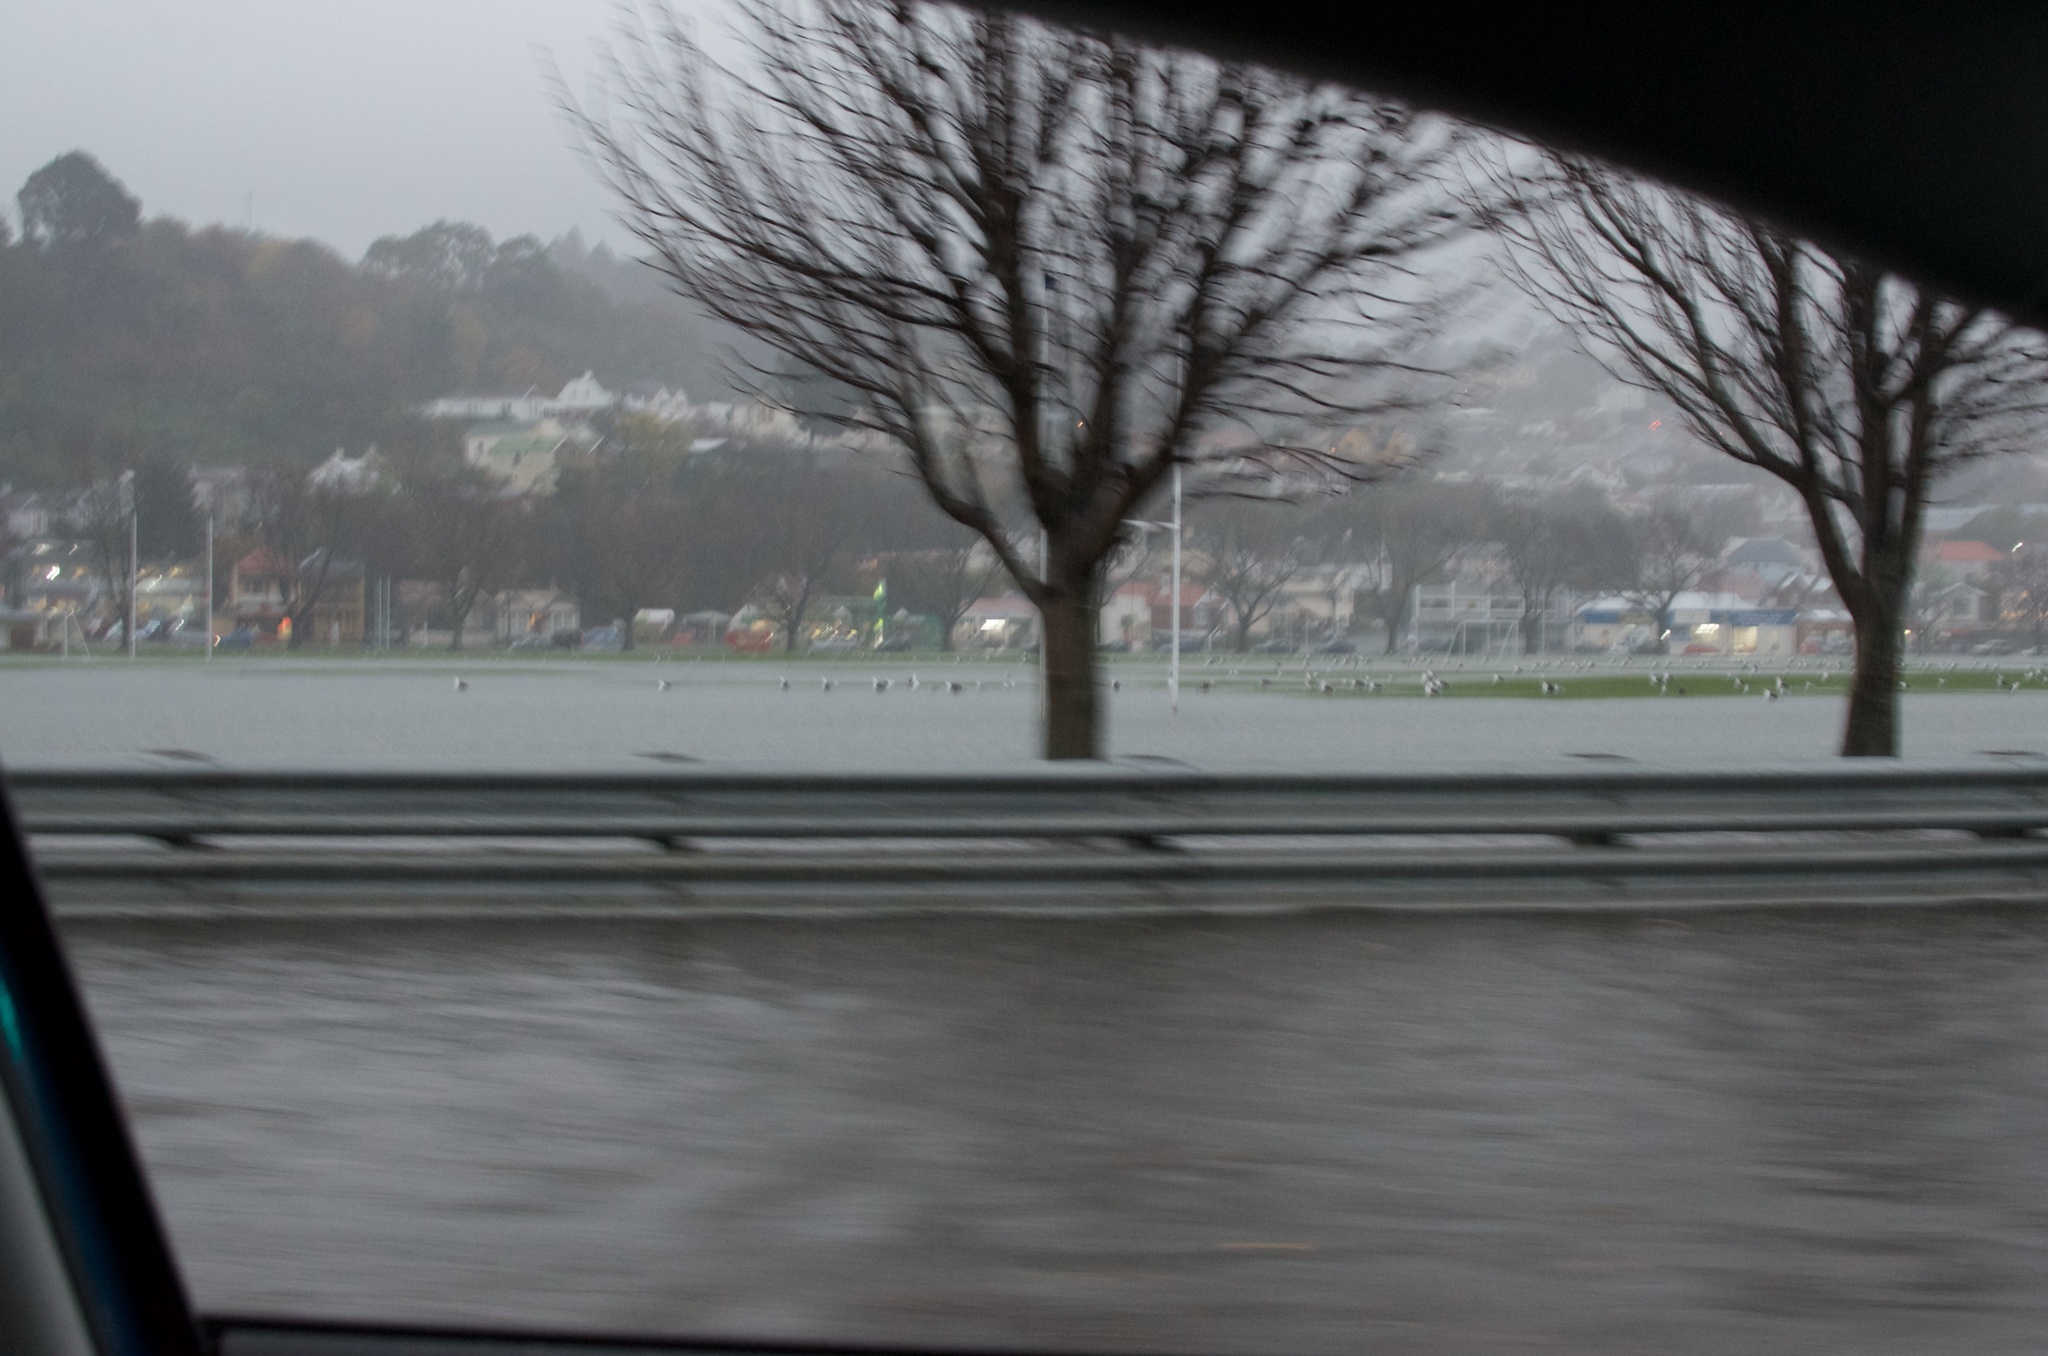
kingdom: Animalia
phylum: Chordata
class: Aves
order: Charadriiformes
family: Laridae
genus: Larus
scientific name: Larus dominicanus
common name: Kelp gull
